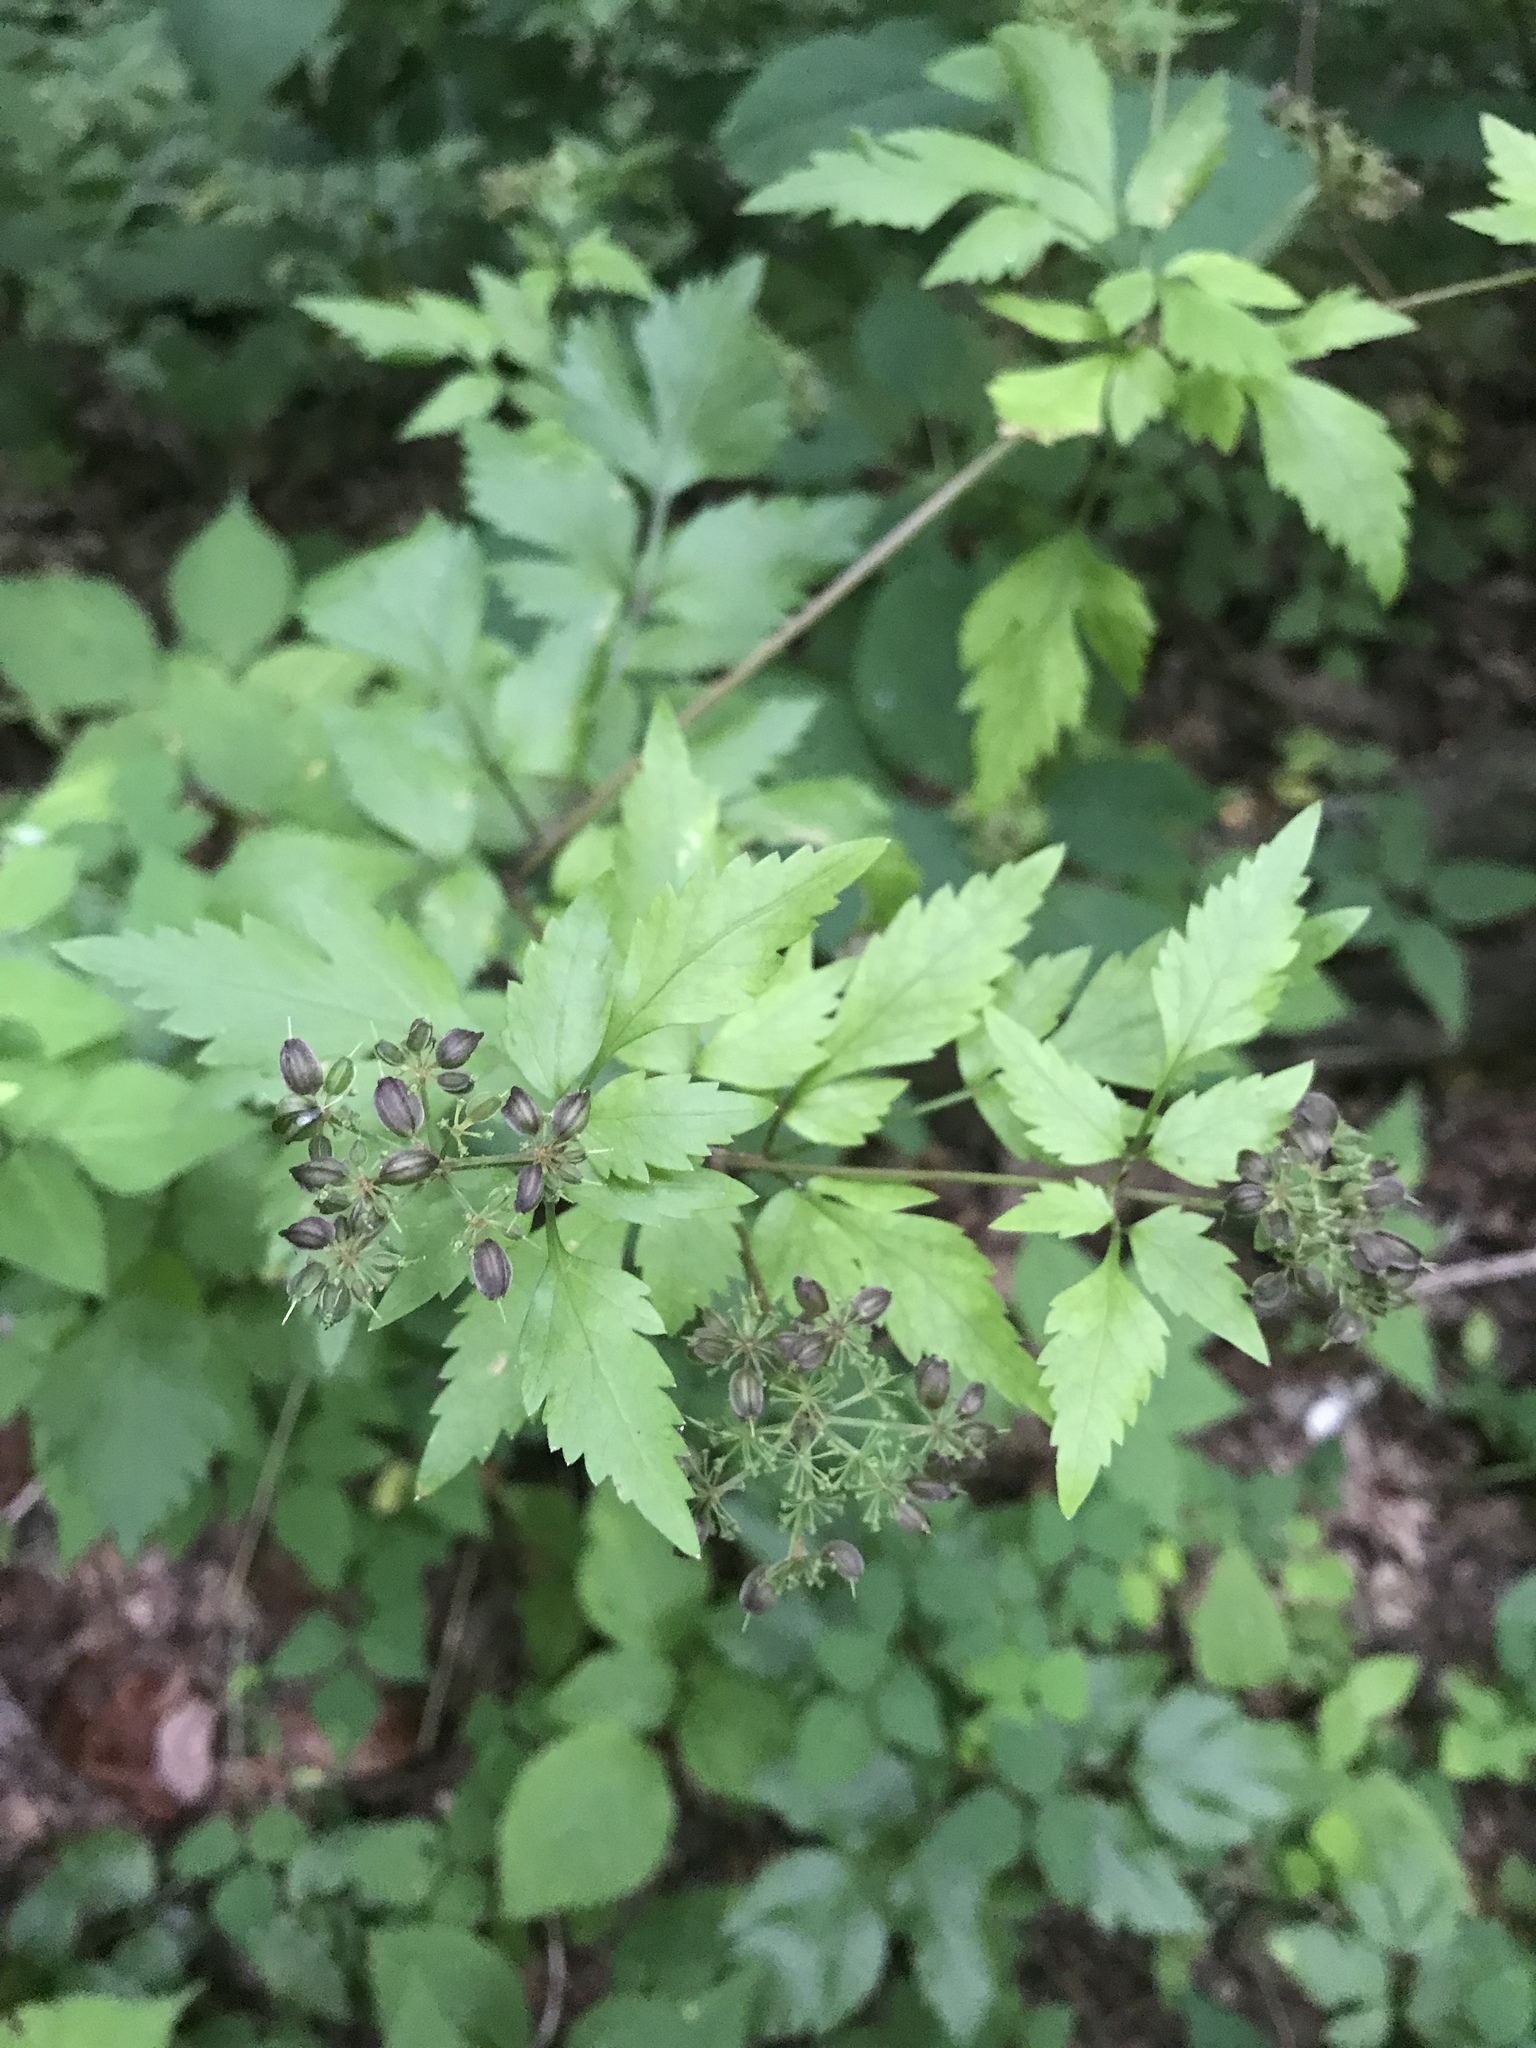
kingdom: Plantae
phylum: Tracheophyta
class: Magnoliopsida
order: Apiales
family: Apiaceae
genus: Thaspium
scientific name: Thaspium barbinode
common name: Bearded meadow-parsnip
